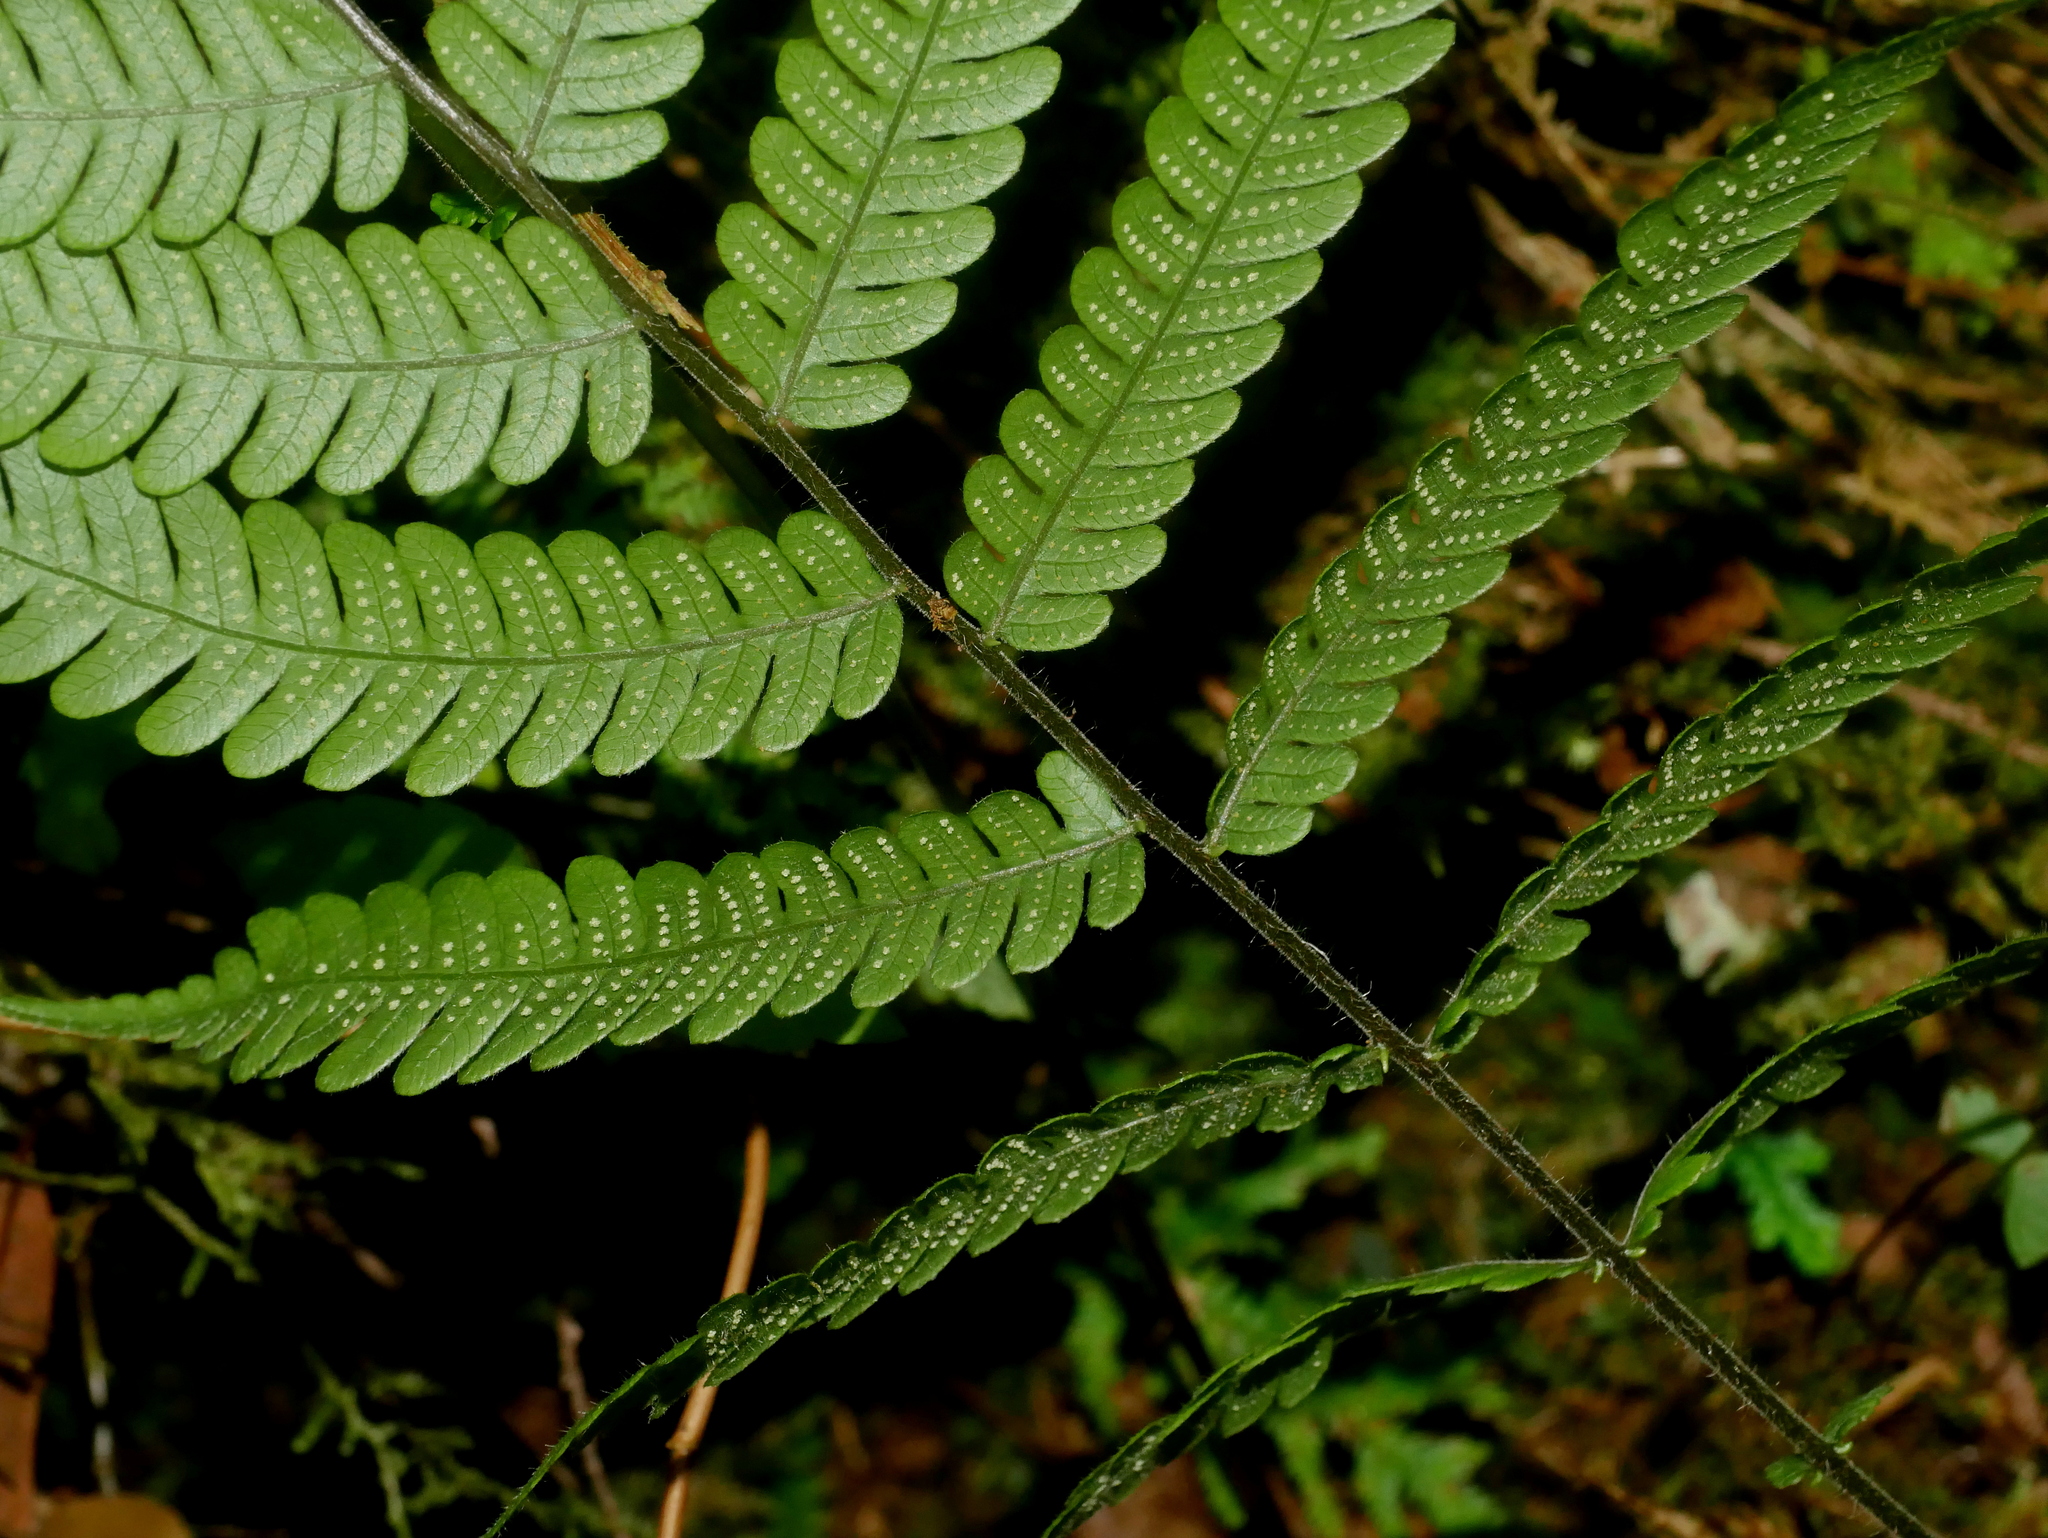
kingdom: Plantae
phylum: Tracheophyta
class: Polypodiopsida
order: Polypodiales
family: Thelypteridaceae
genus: Cyclogramma
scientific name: Cyclogramma omeiensis
